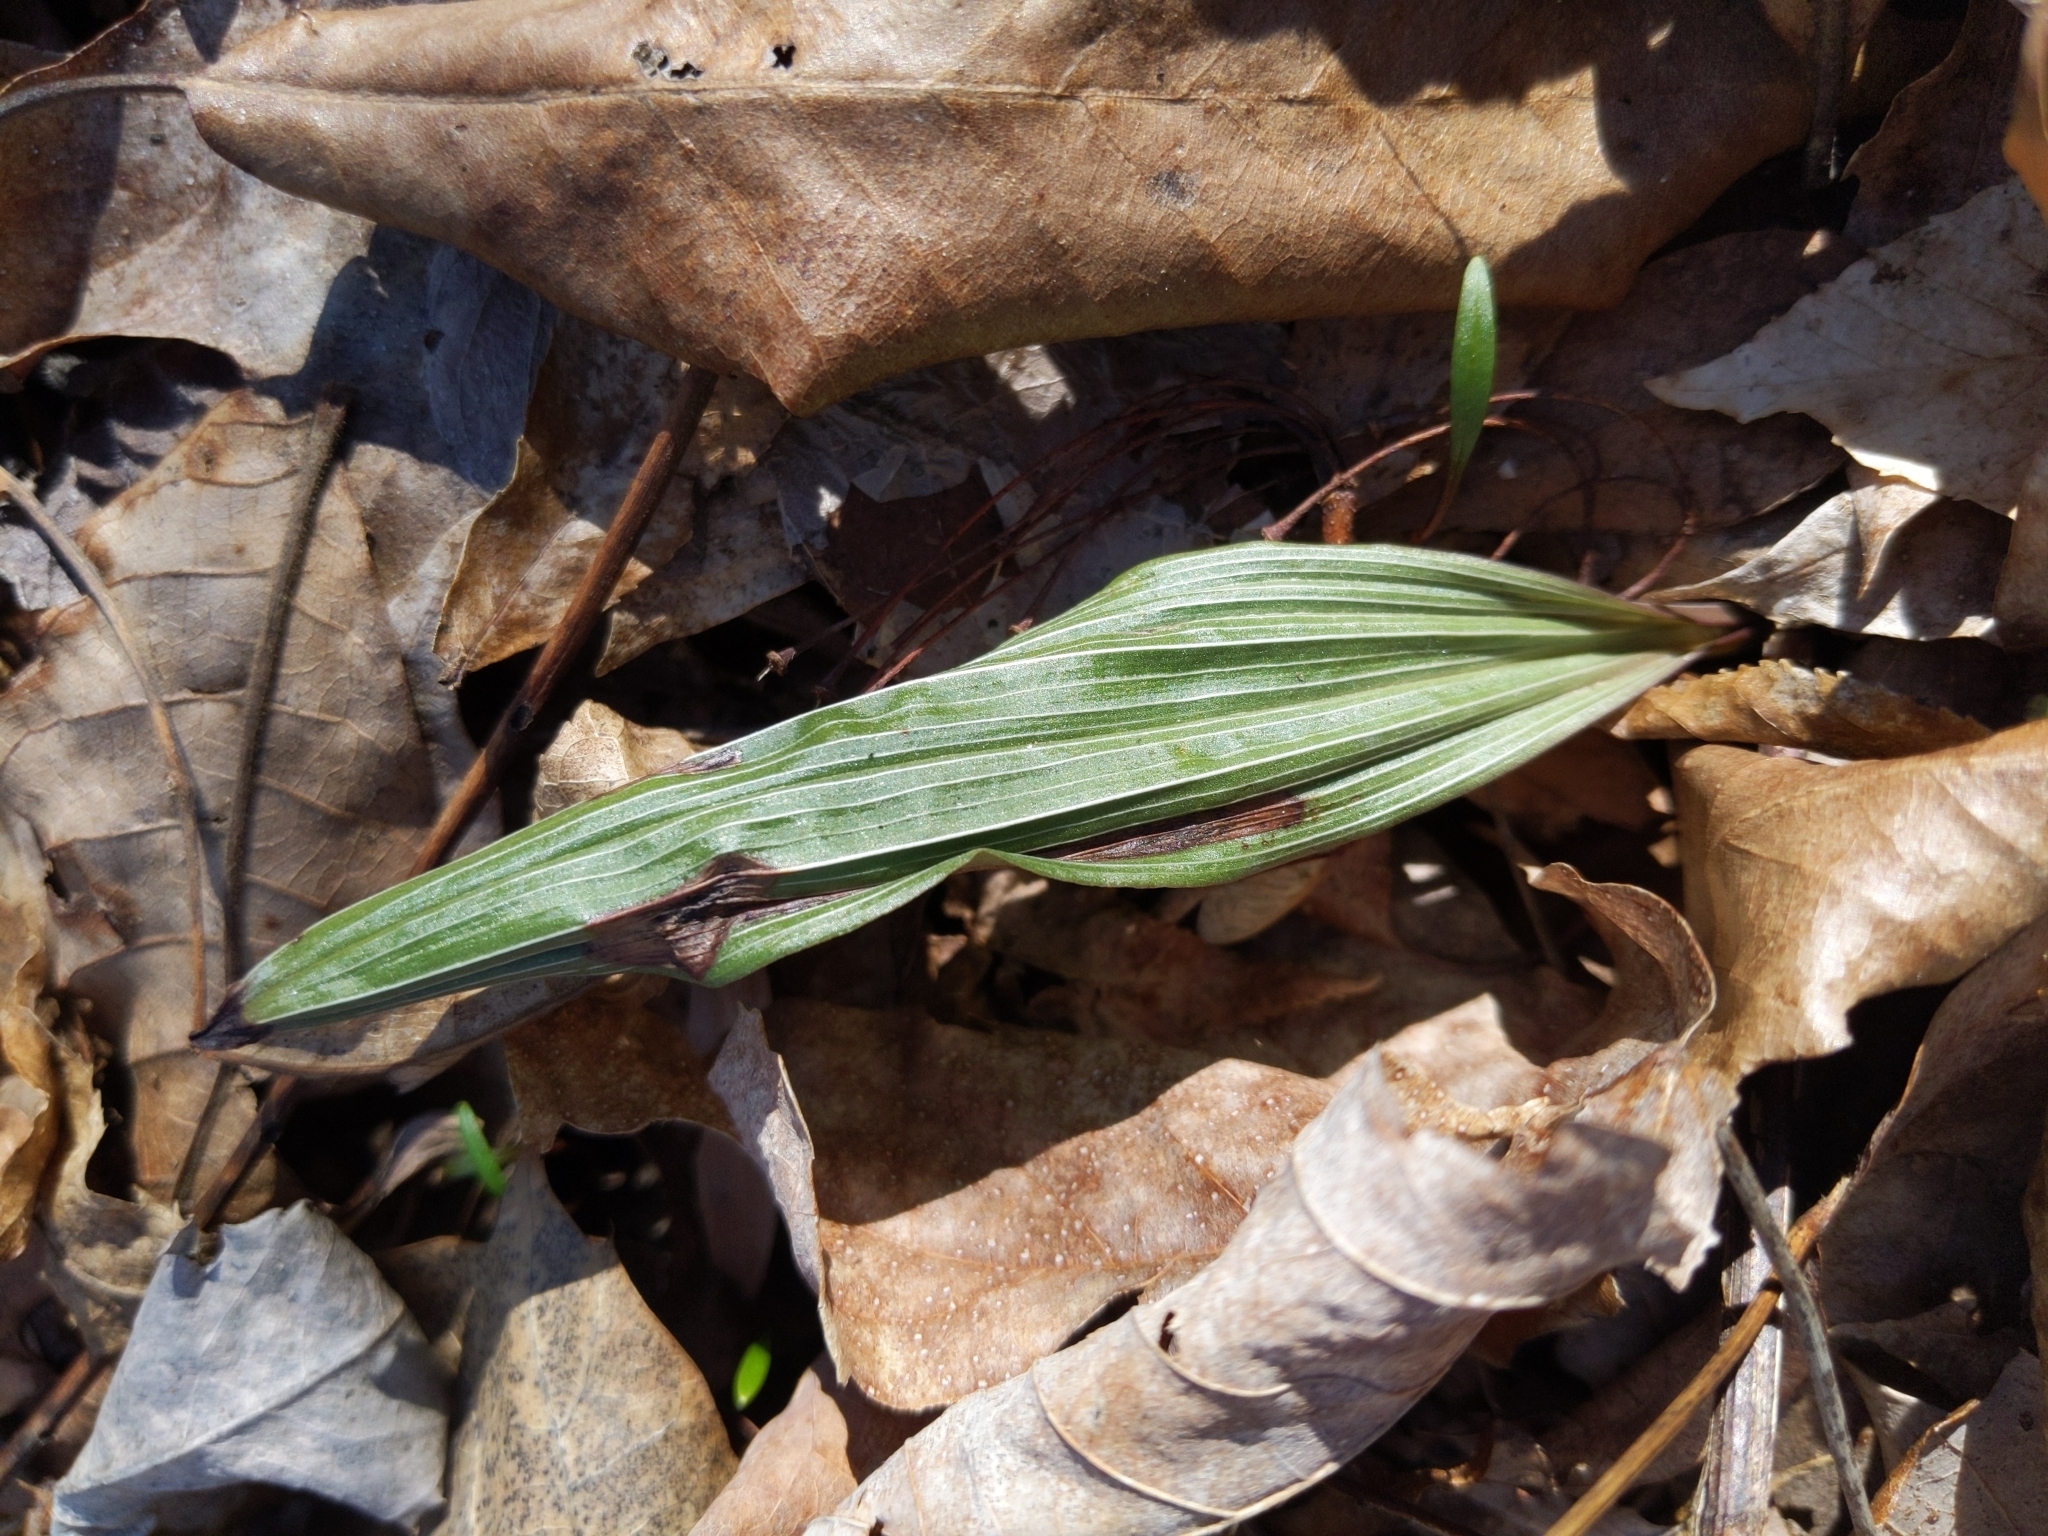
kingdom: Plantae
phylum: Tracheophyta
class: Liliopsida
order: Asparagales
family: Orchidaceae
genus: Aplectrum
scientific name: Aplectrum hyemale
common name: Adam-and-eve
